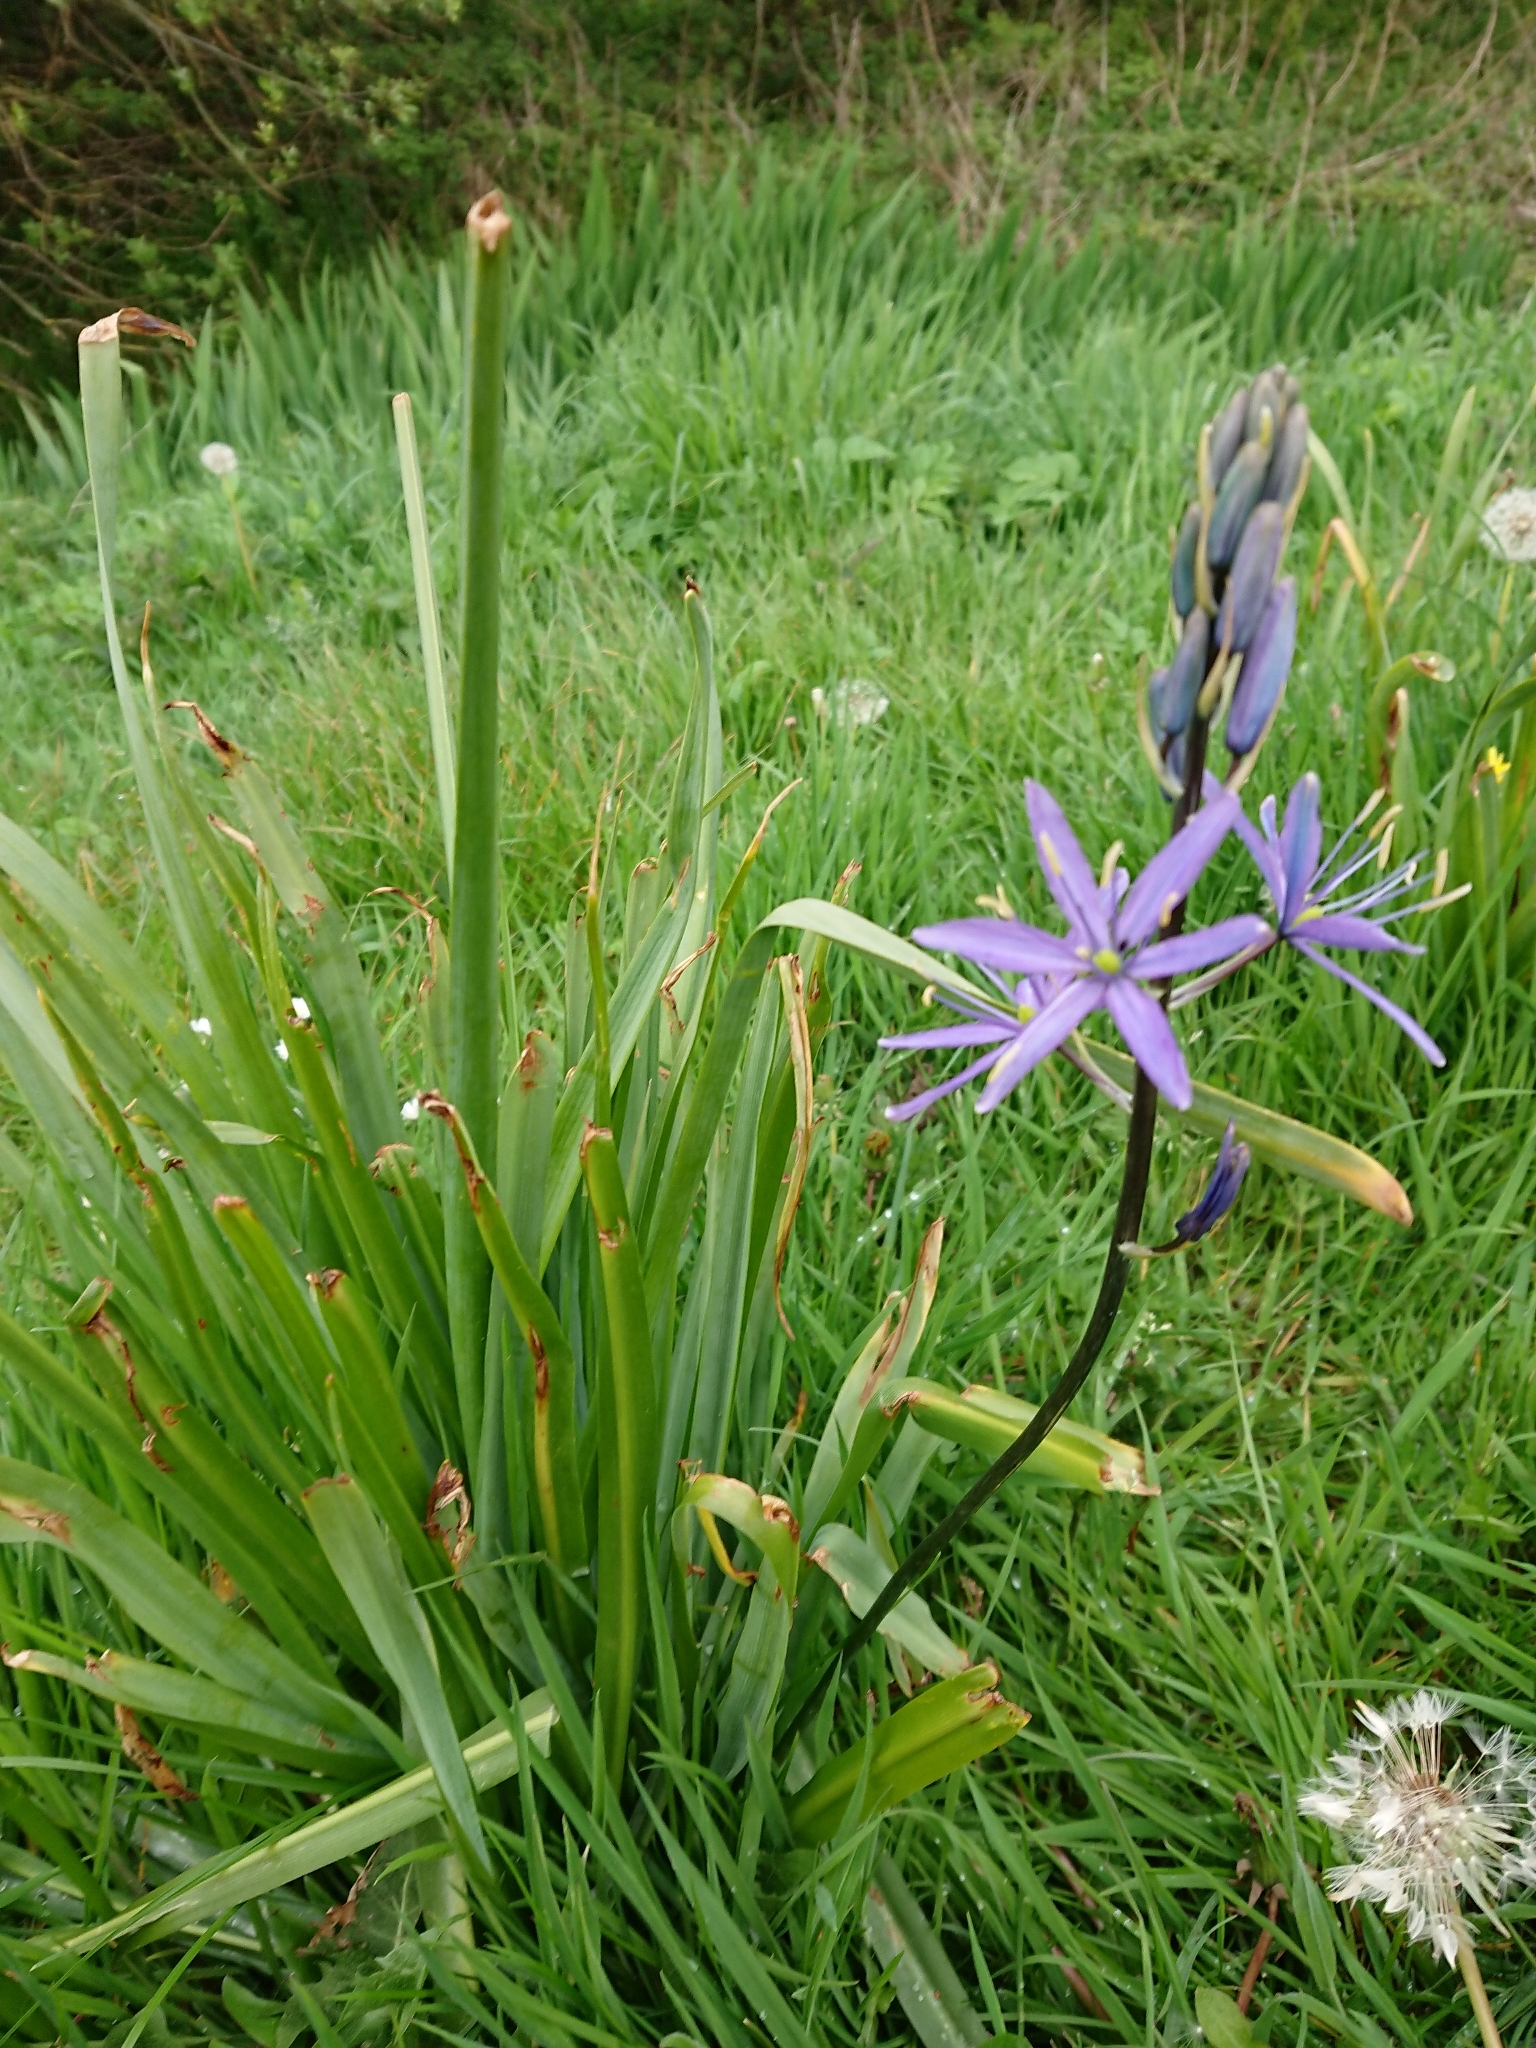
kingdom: Plantae
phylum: Tracheophyta
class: Liliopsida
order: Asparagales
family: Asparagaceae
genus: Camassia
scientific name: Camassia leichtlinii
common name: Leichtlin's camas
